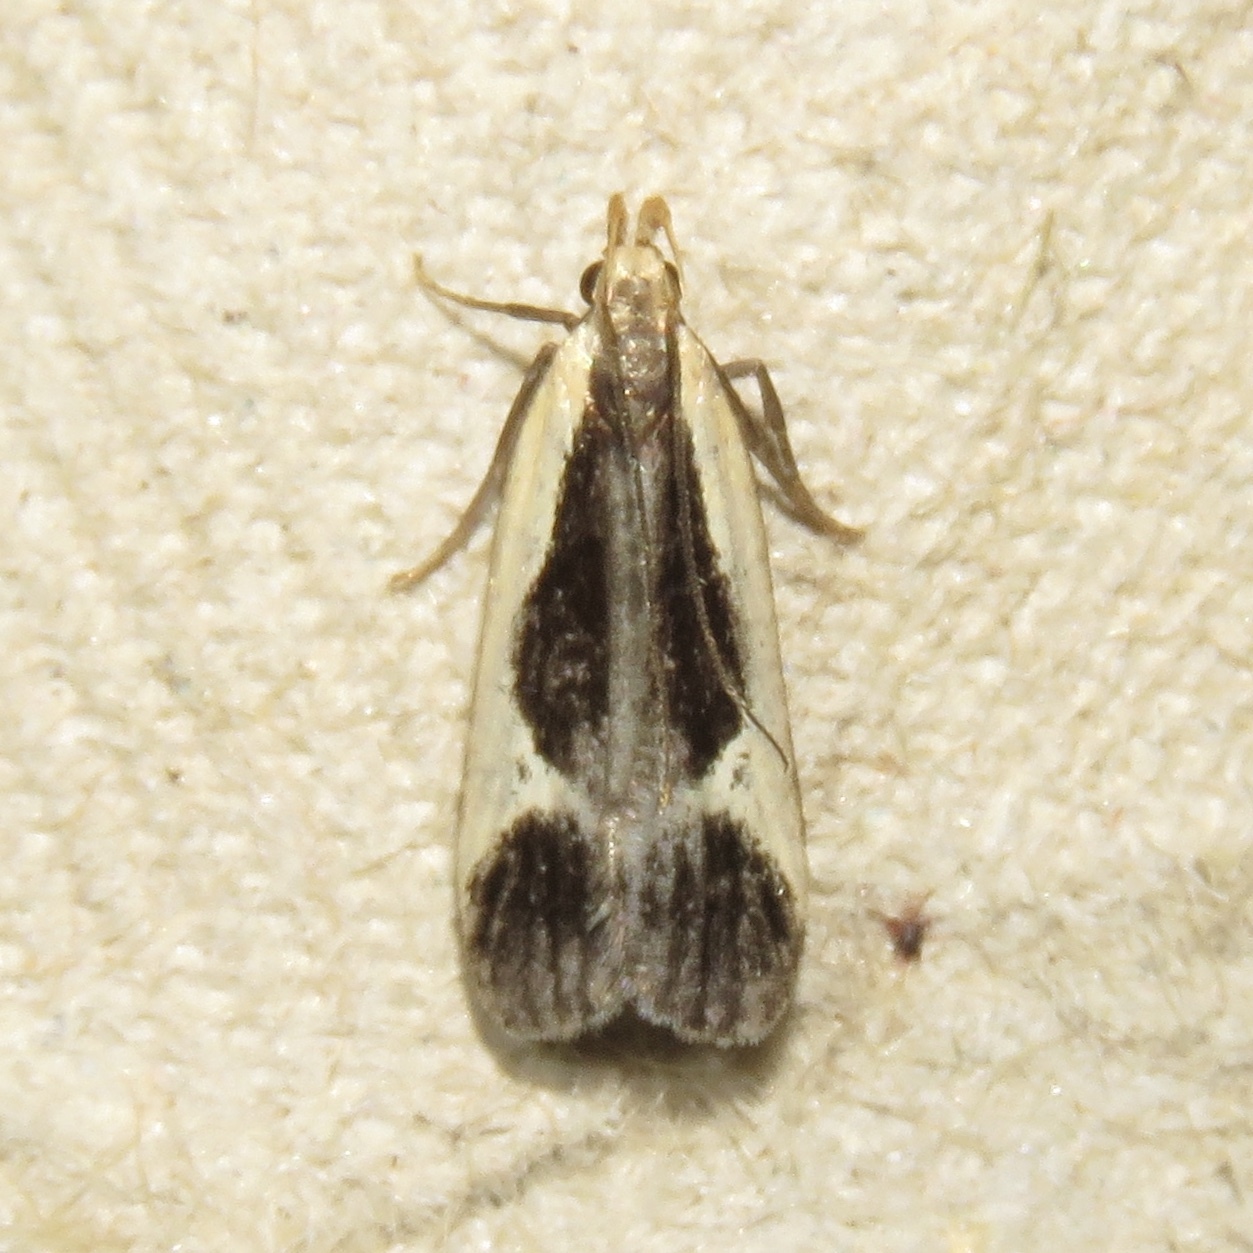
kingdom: Animalia
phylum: Arthropoda
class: Insecta
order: Lepidoptera
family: Gelechiidae
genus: Dichomeris
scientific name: Dichomeris flavocostella
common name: Cream-edged dichomeris moth
